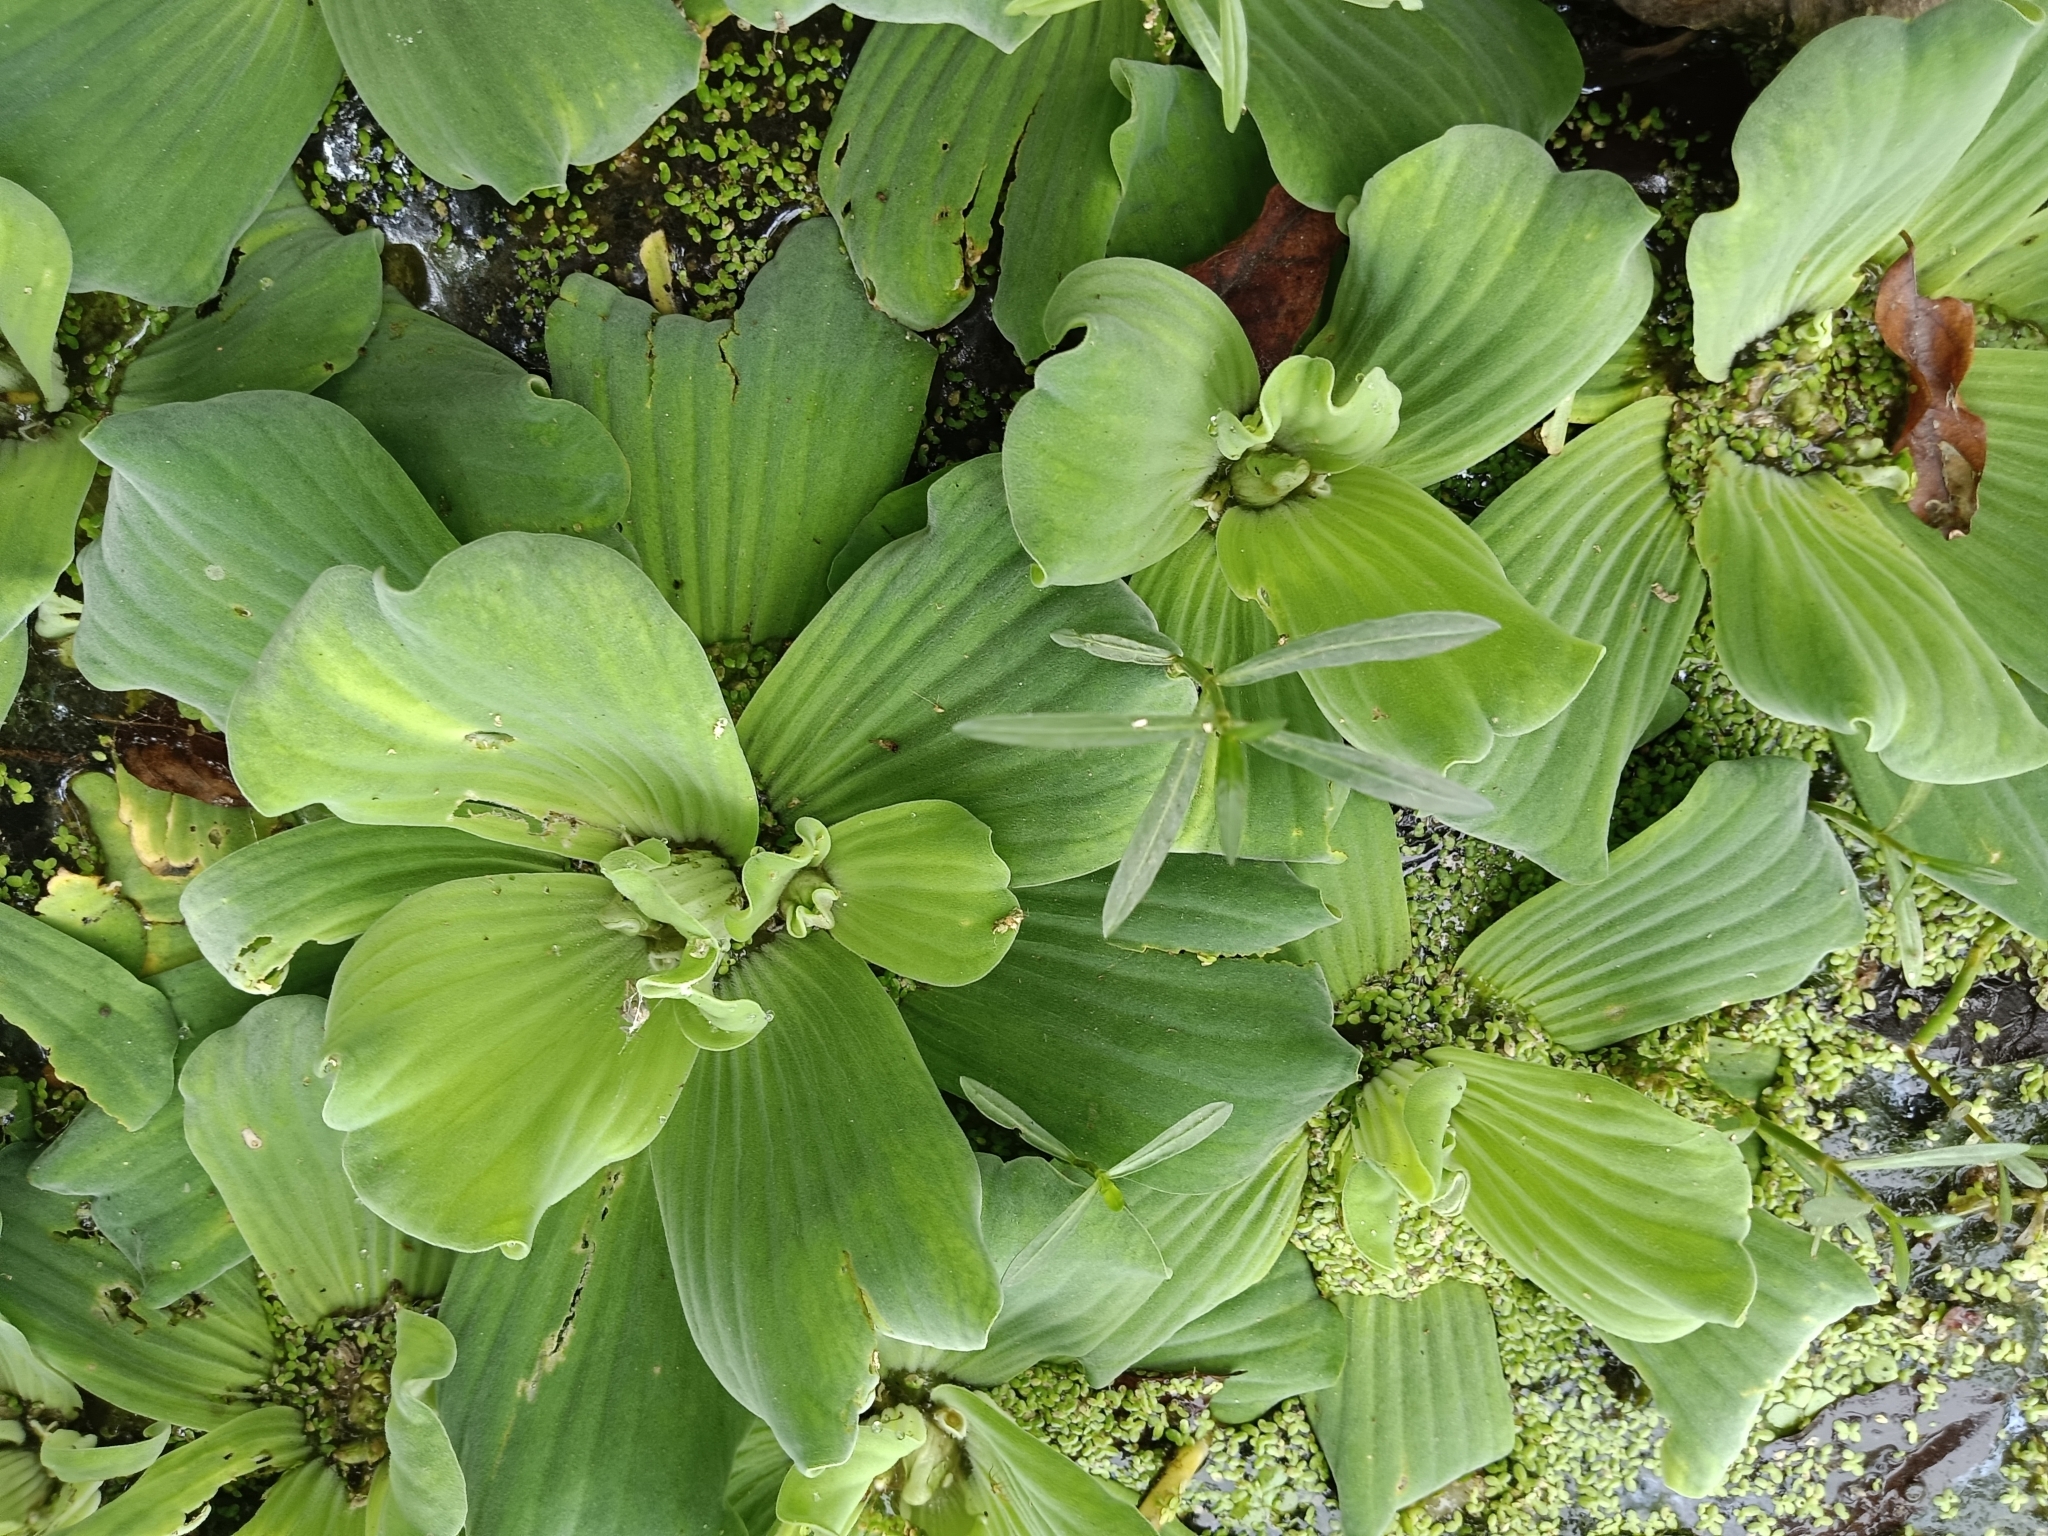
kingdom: Plantae
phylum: Tracheophyta
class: Liliopsida
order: Alismatales
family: Araceae
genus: Pistia
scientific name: Pistia stratiotes
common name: Water lettuce
